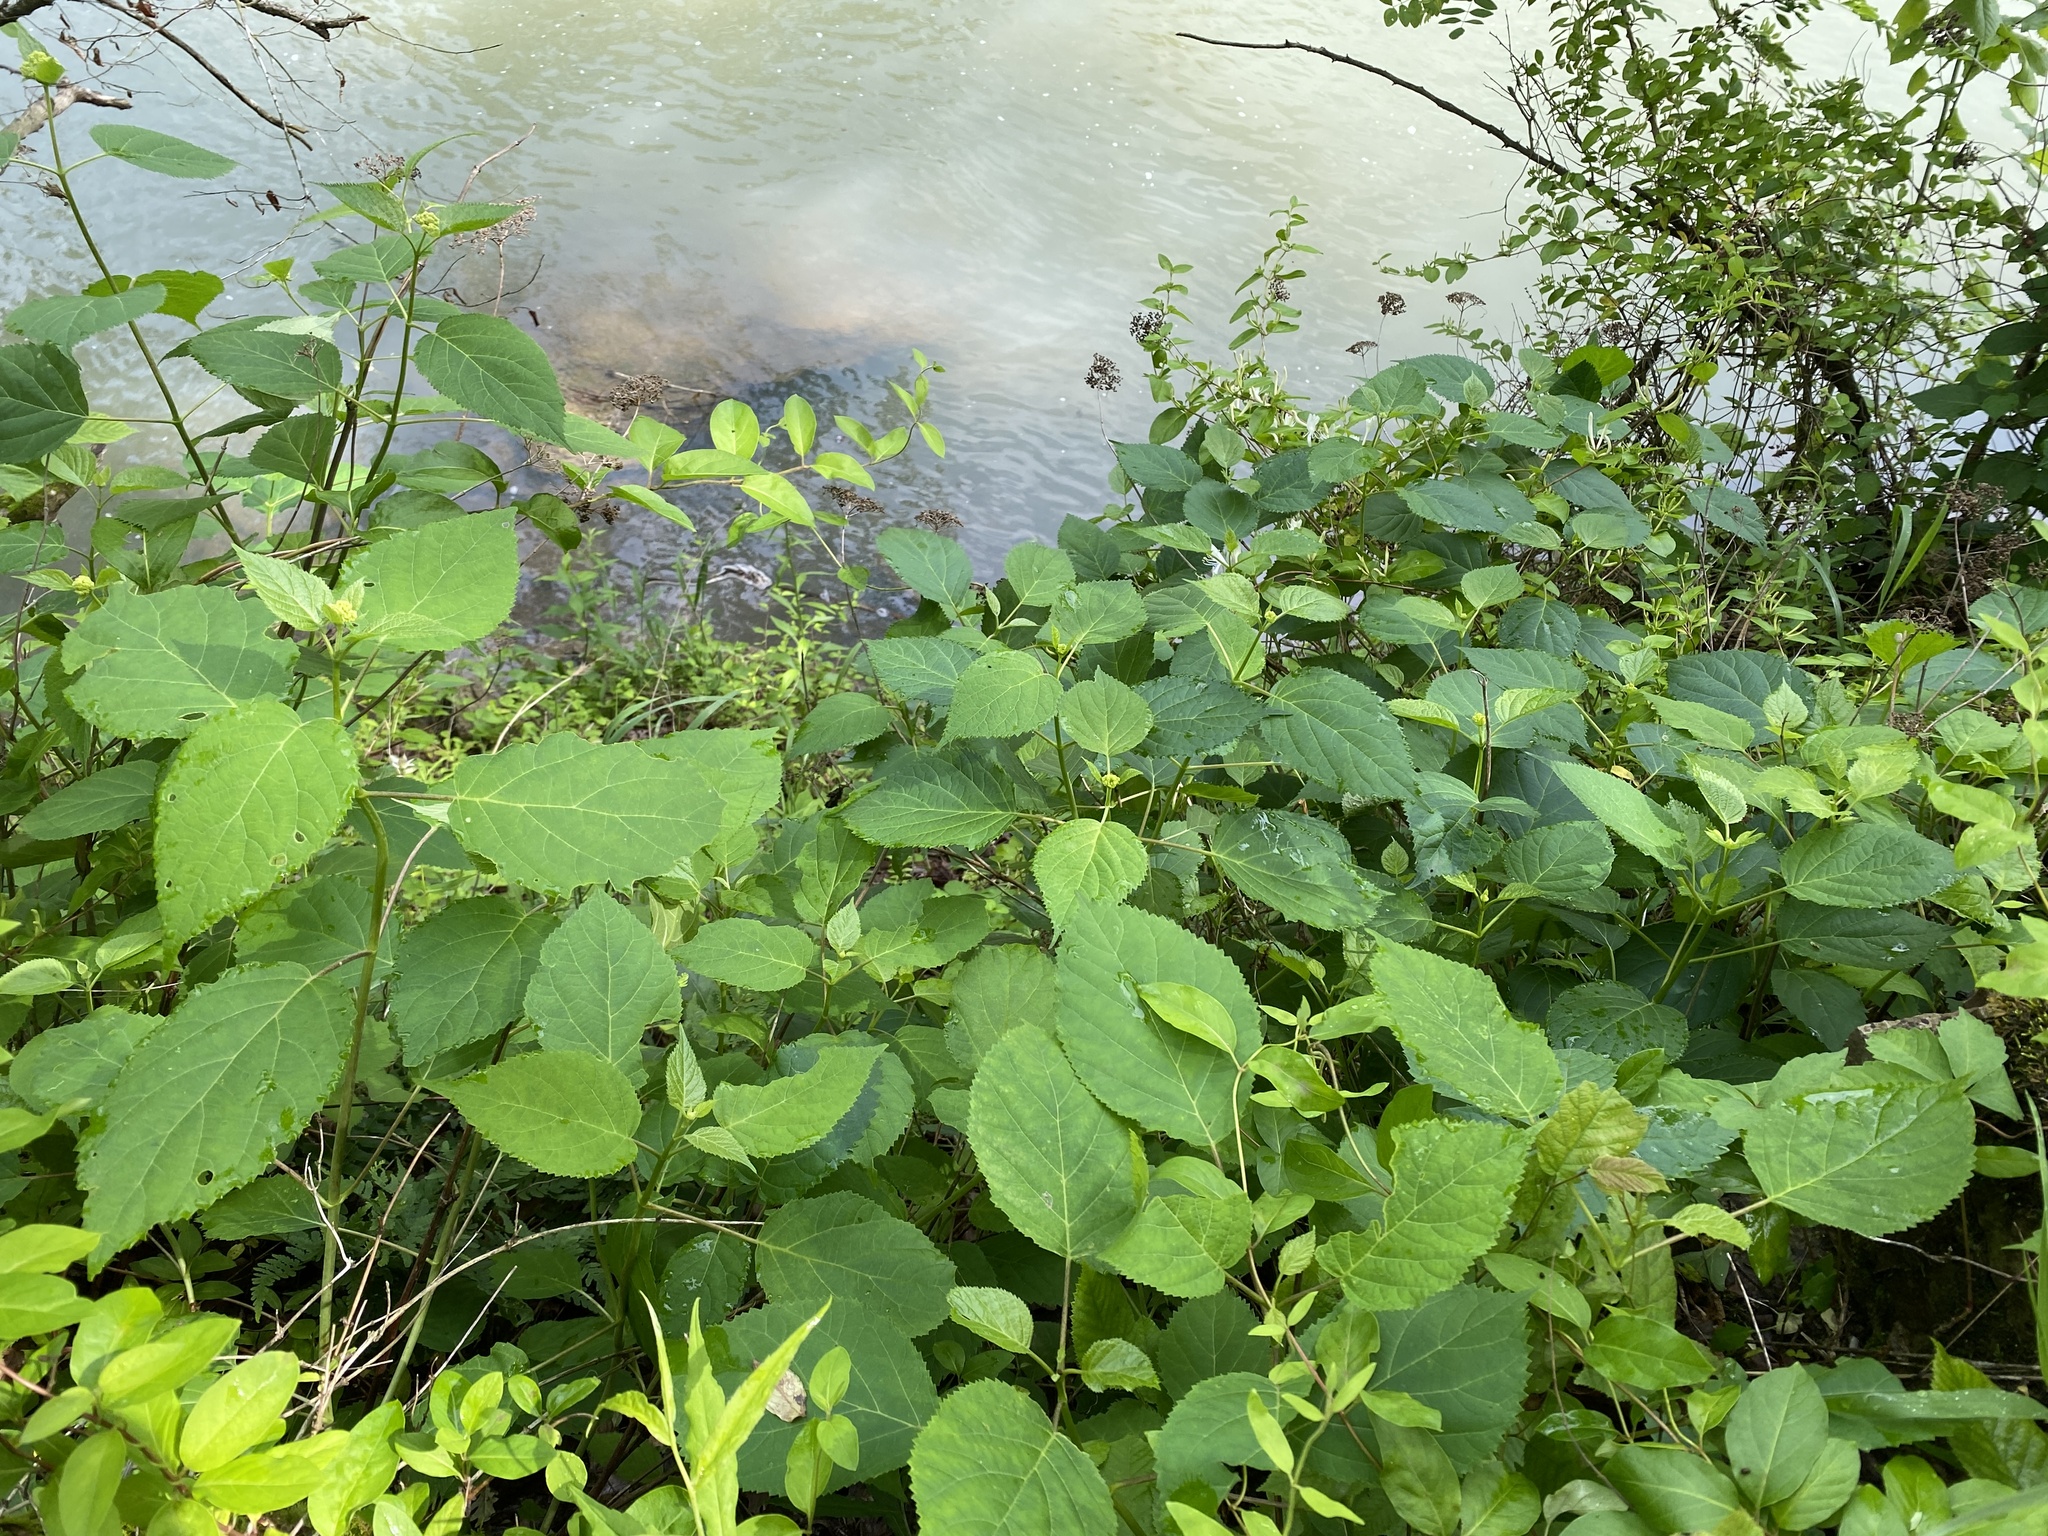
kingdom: Plantae
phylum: Tracheophyta
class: Magnoliopsida
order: Cornales
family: Hydrangeaceae
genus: Hydrangea
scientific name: Hydrangea arborescens
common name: Sevenbark
